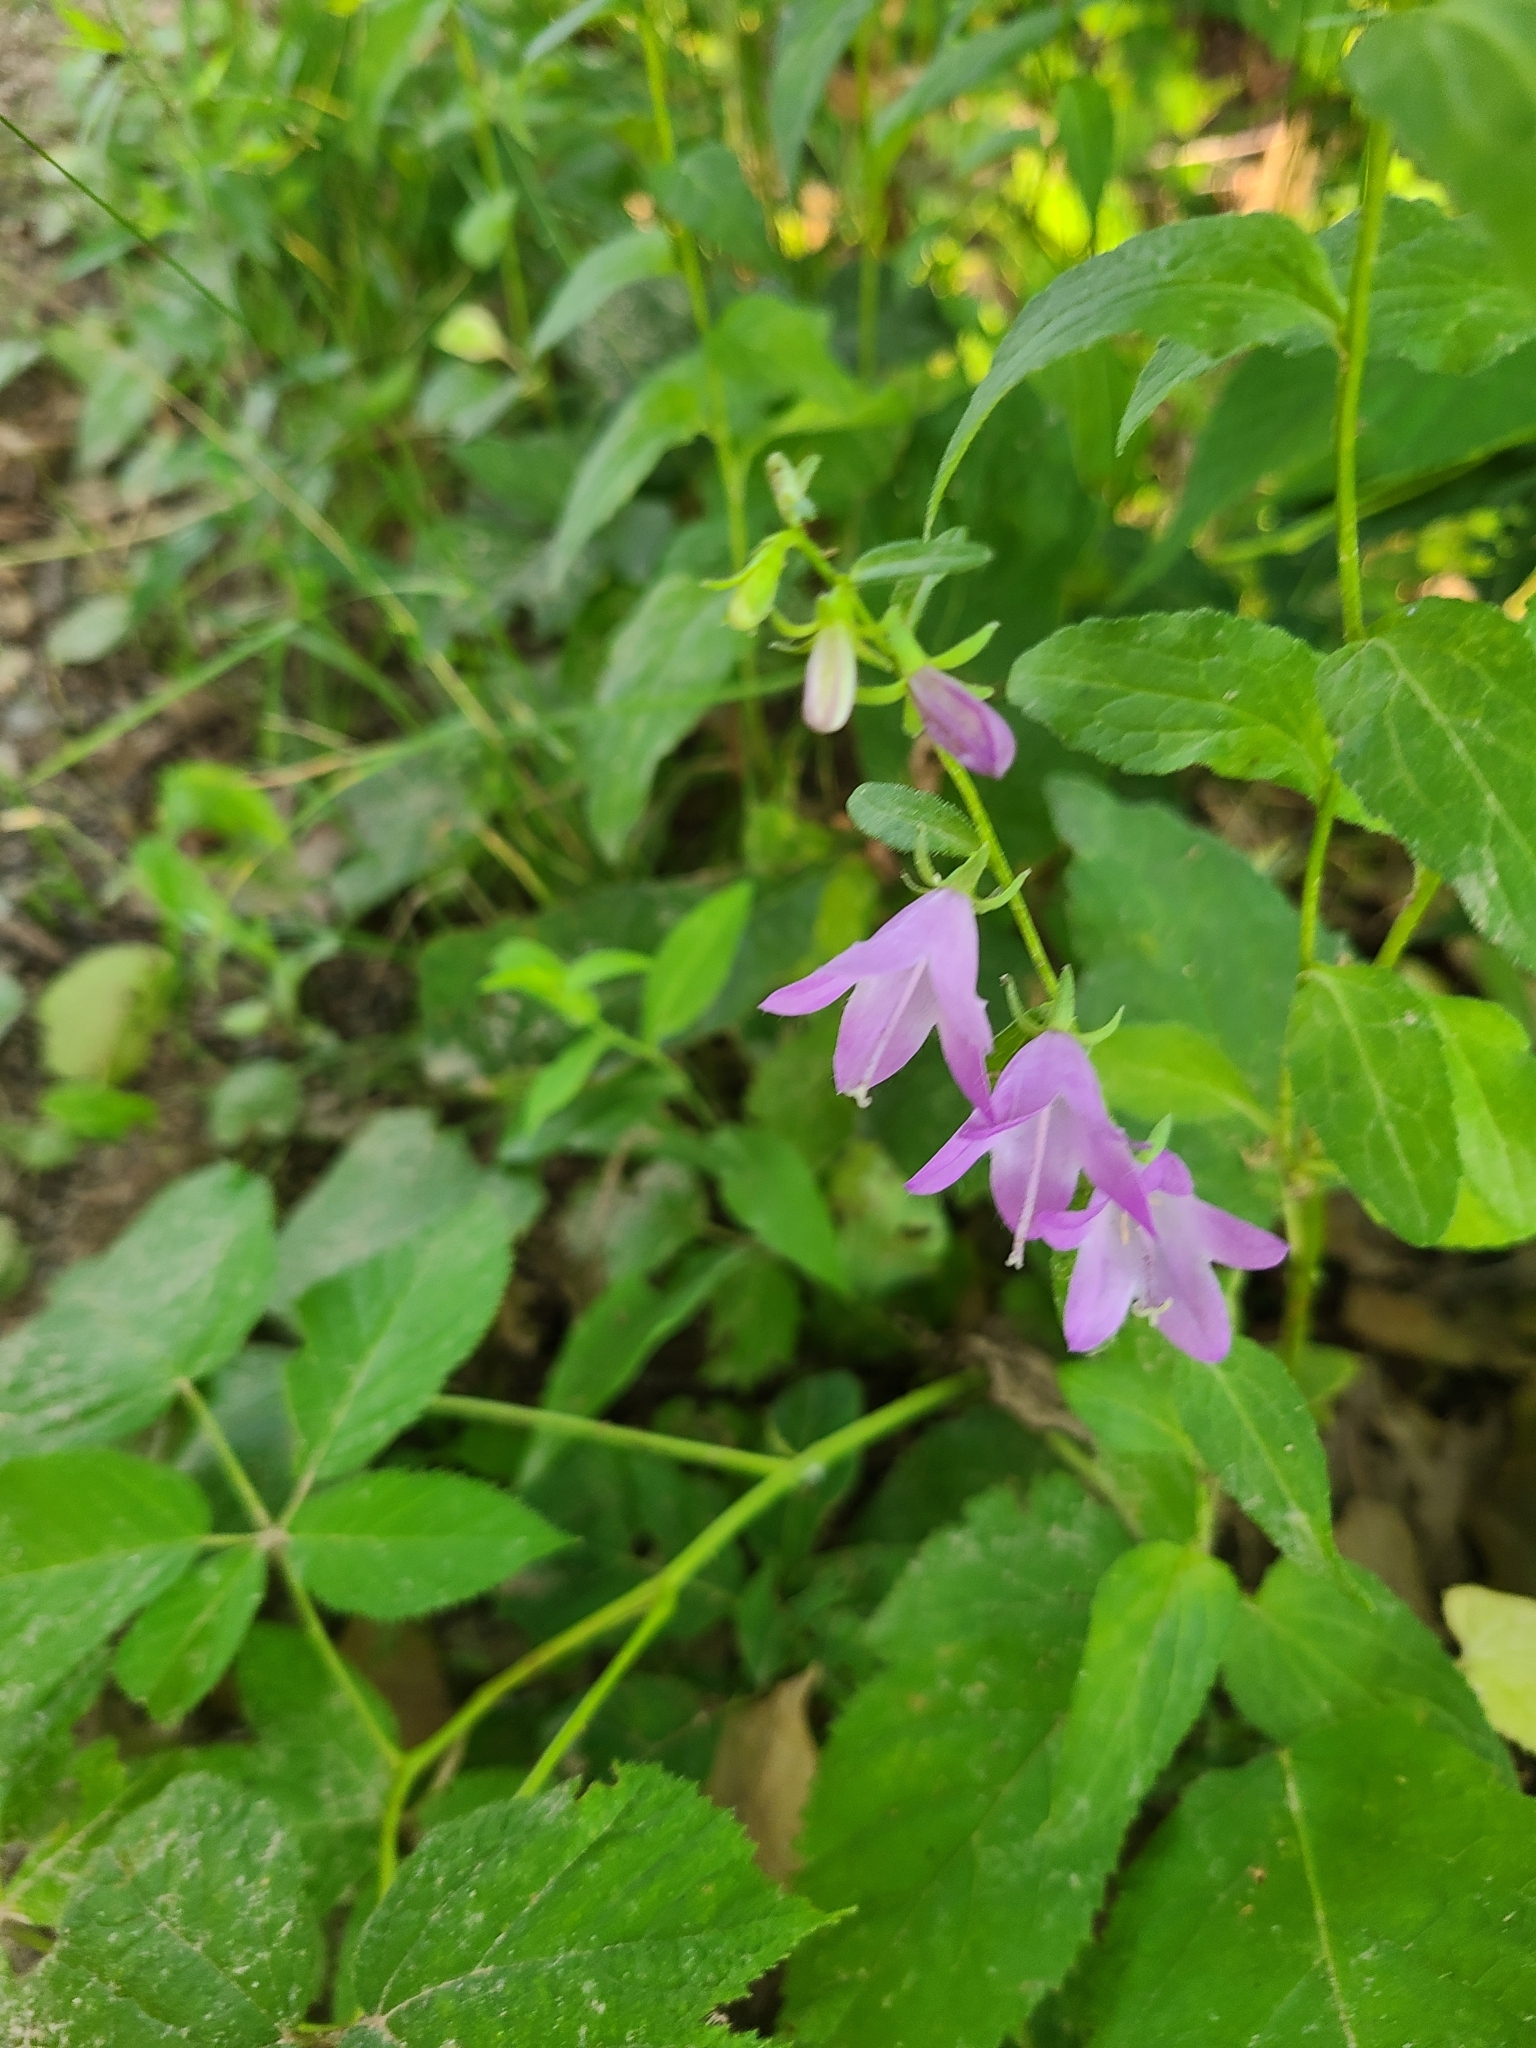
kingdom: Plantae
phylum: Tracheophyta
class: Magnoliopsida
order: Asterales
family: Campanulaceae
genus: Campanula
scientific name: Campanula rapunculoides
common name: Creeping bellflower
